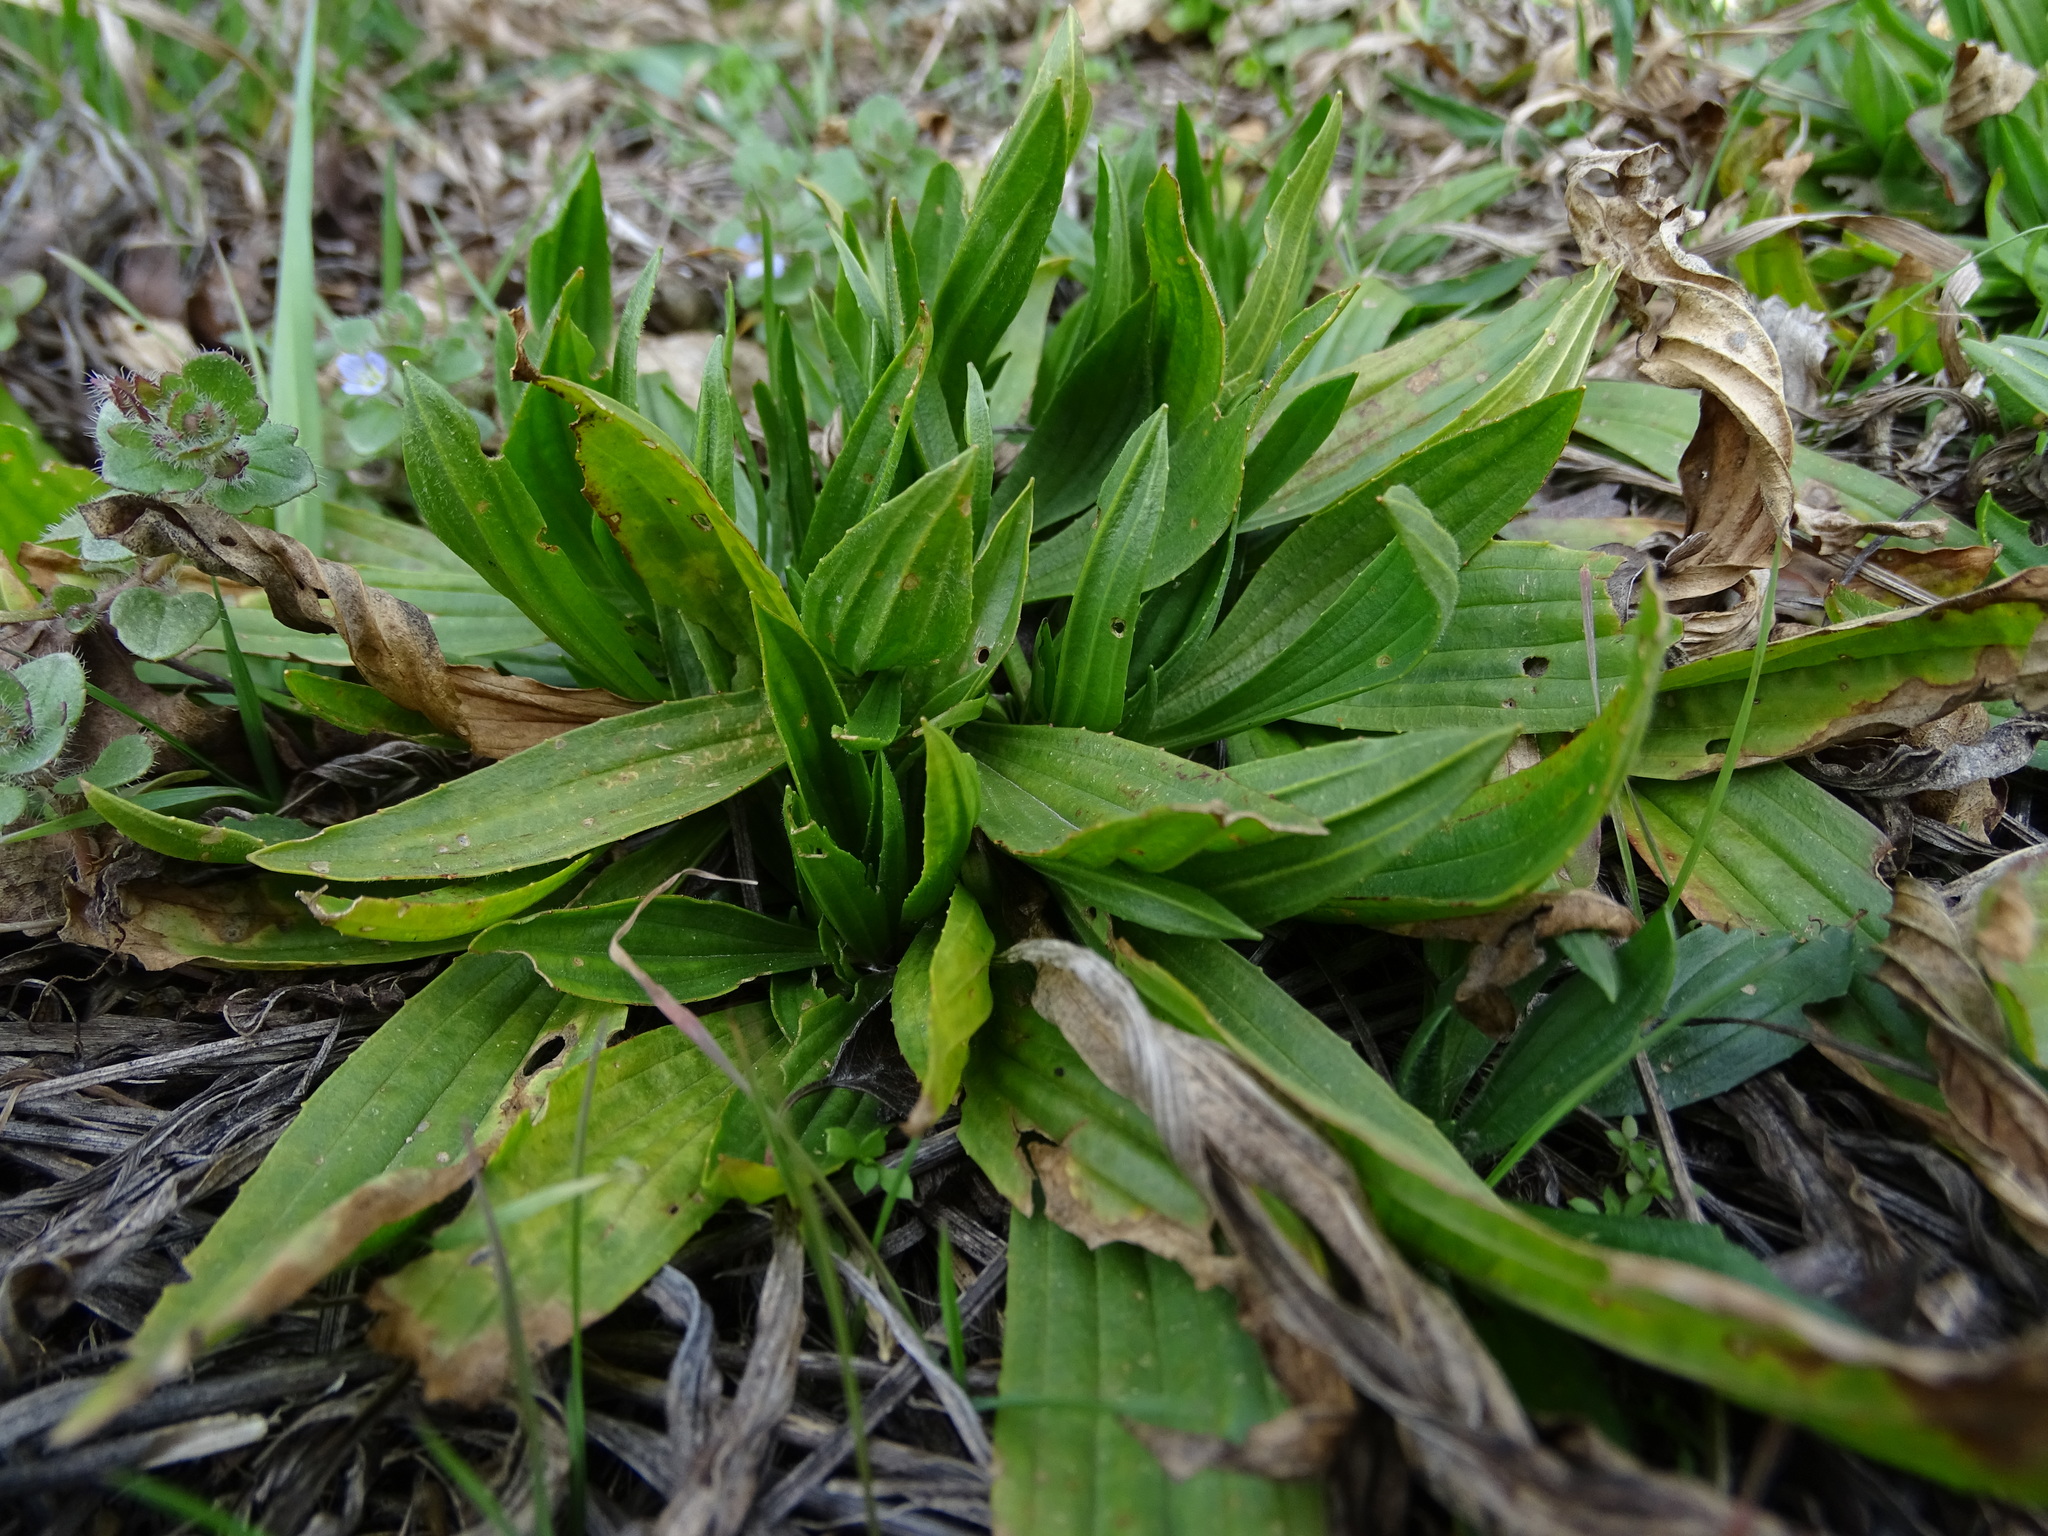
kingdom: Plantae
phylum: Tracheophyta
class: Magnoliopsida
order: Lamiales
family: Plantaginaceae
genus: Plantago
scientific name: Plantago lanceolata
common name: Ribwort plantain
